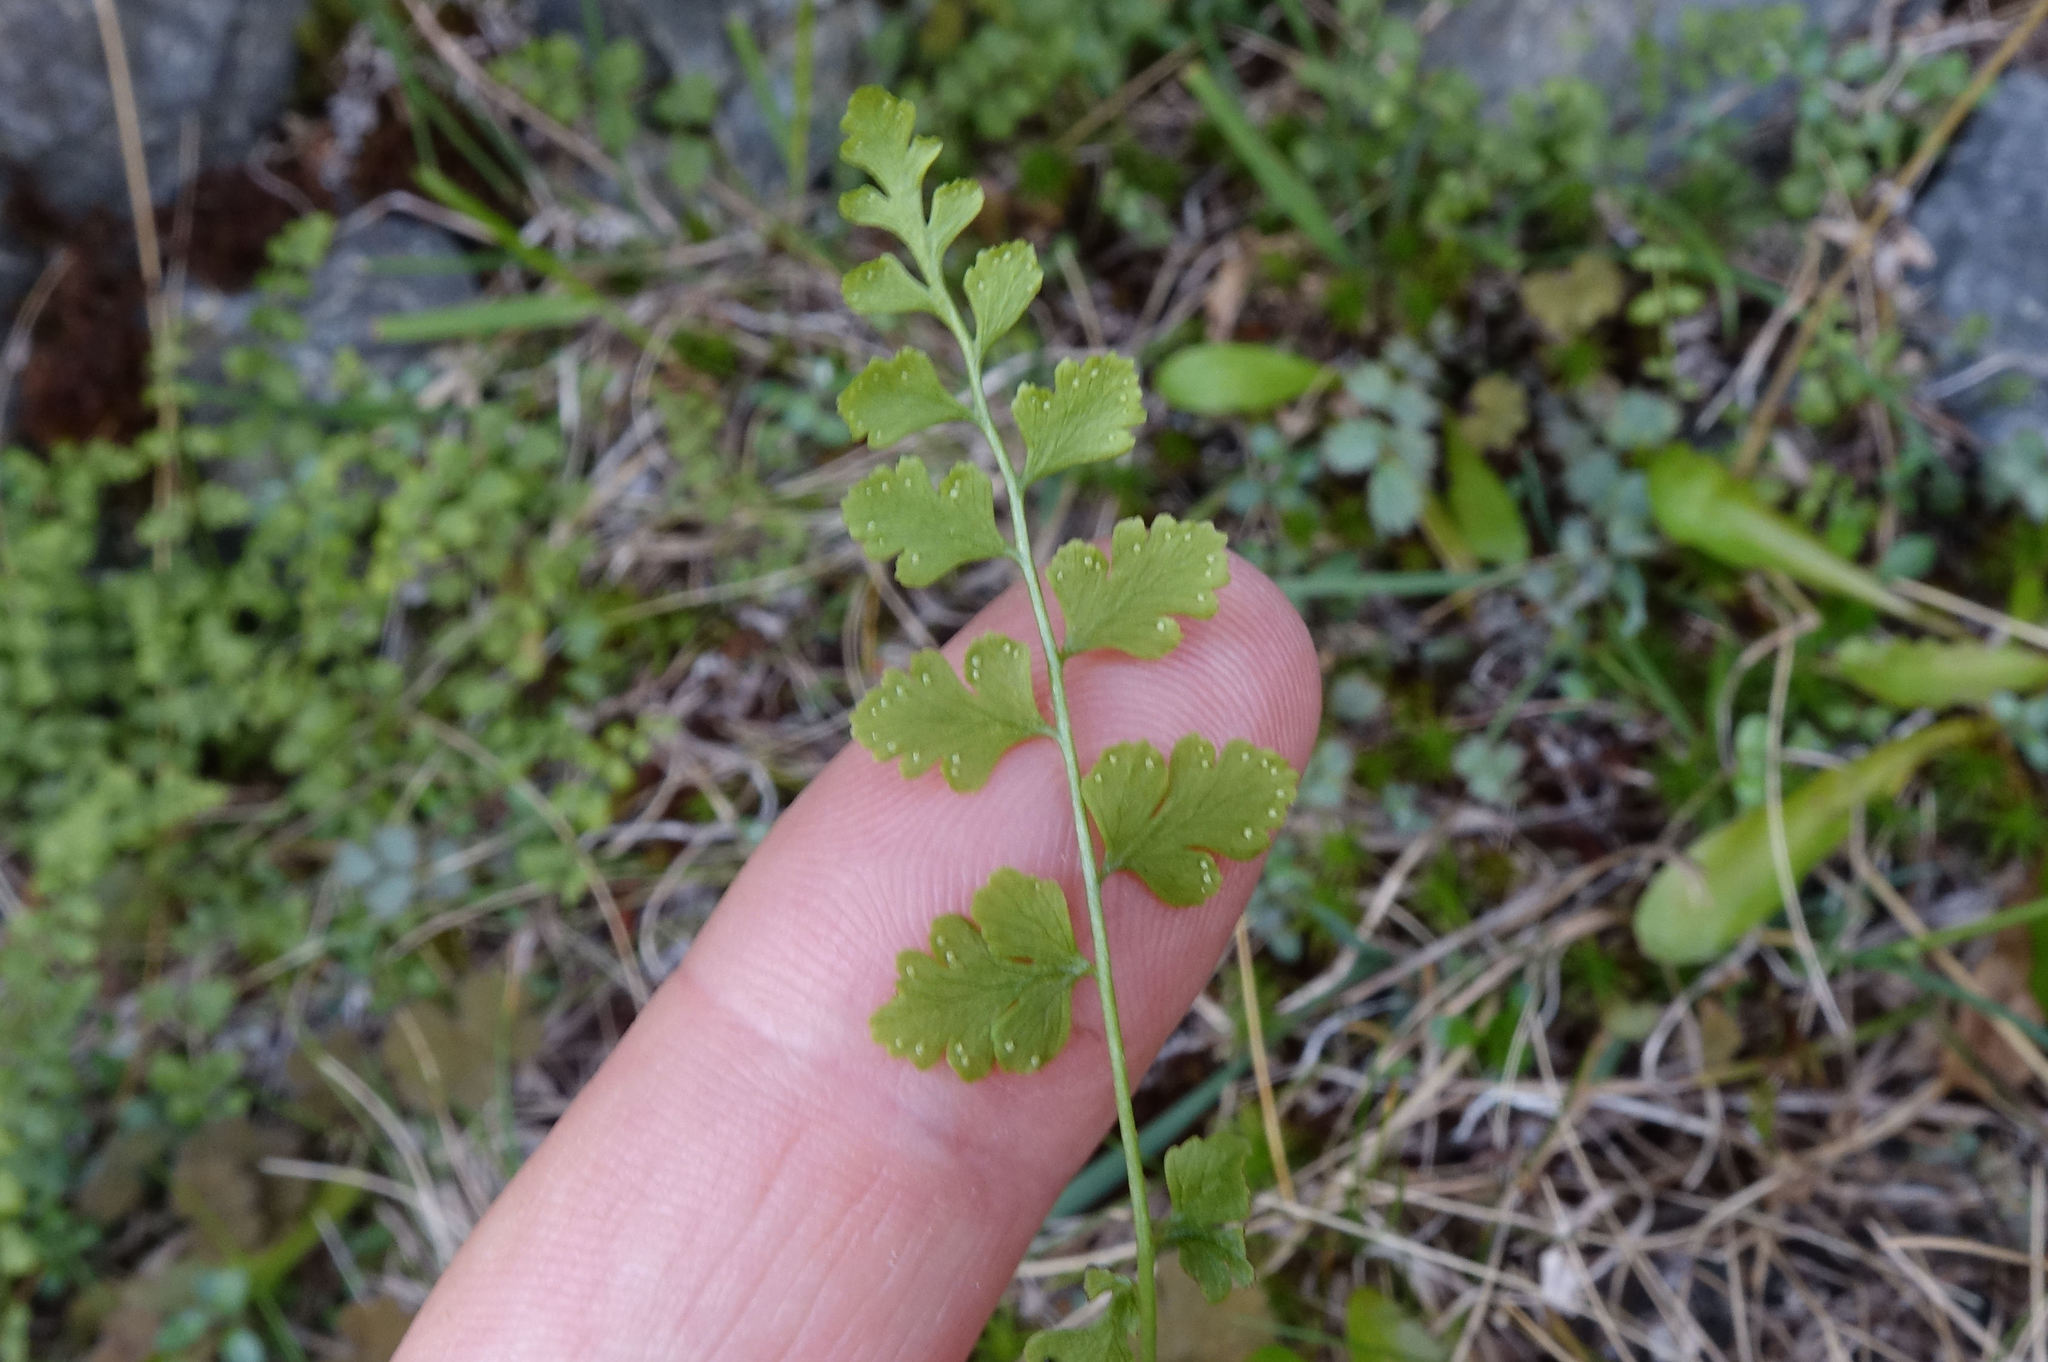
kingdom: Plantae
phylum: Tracheophyta
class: Polypodiopsida
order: Polypodiales
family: Cystopteridaceae
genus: Cystopteris
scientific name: Cystopteris tasmanica
